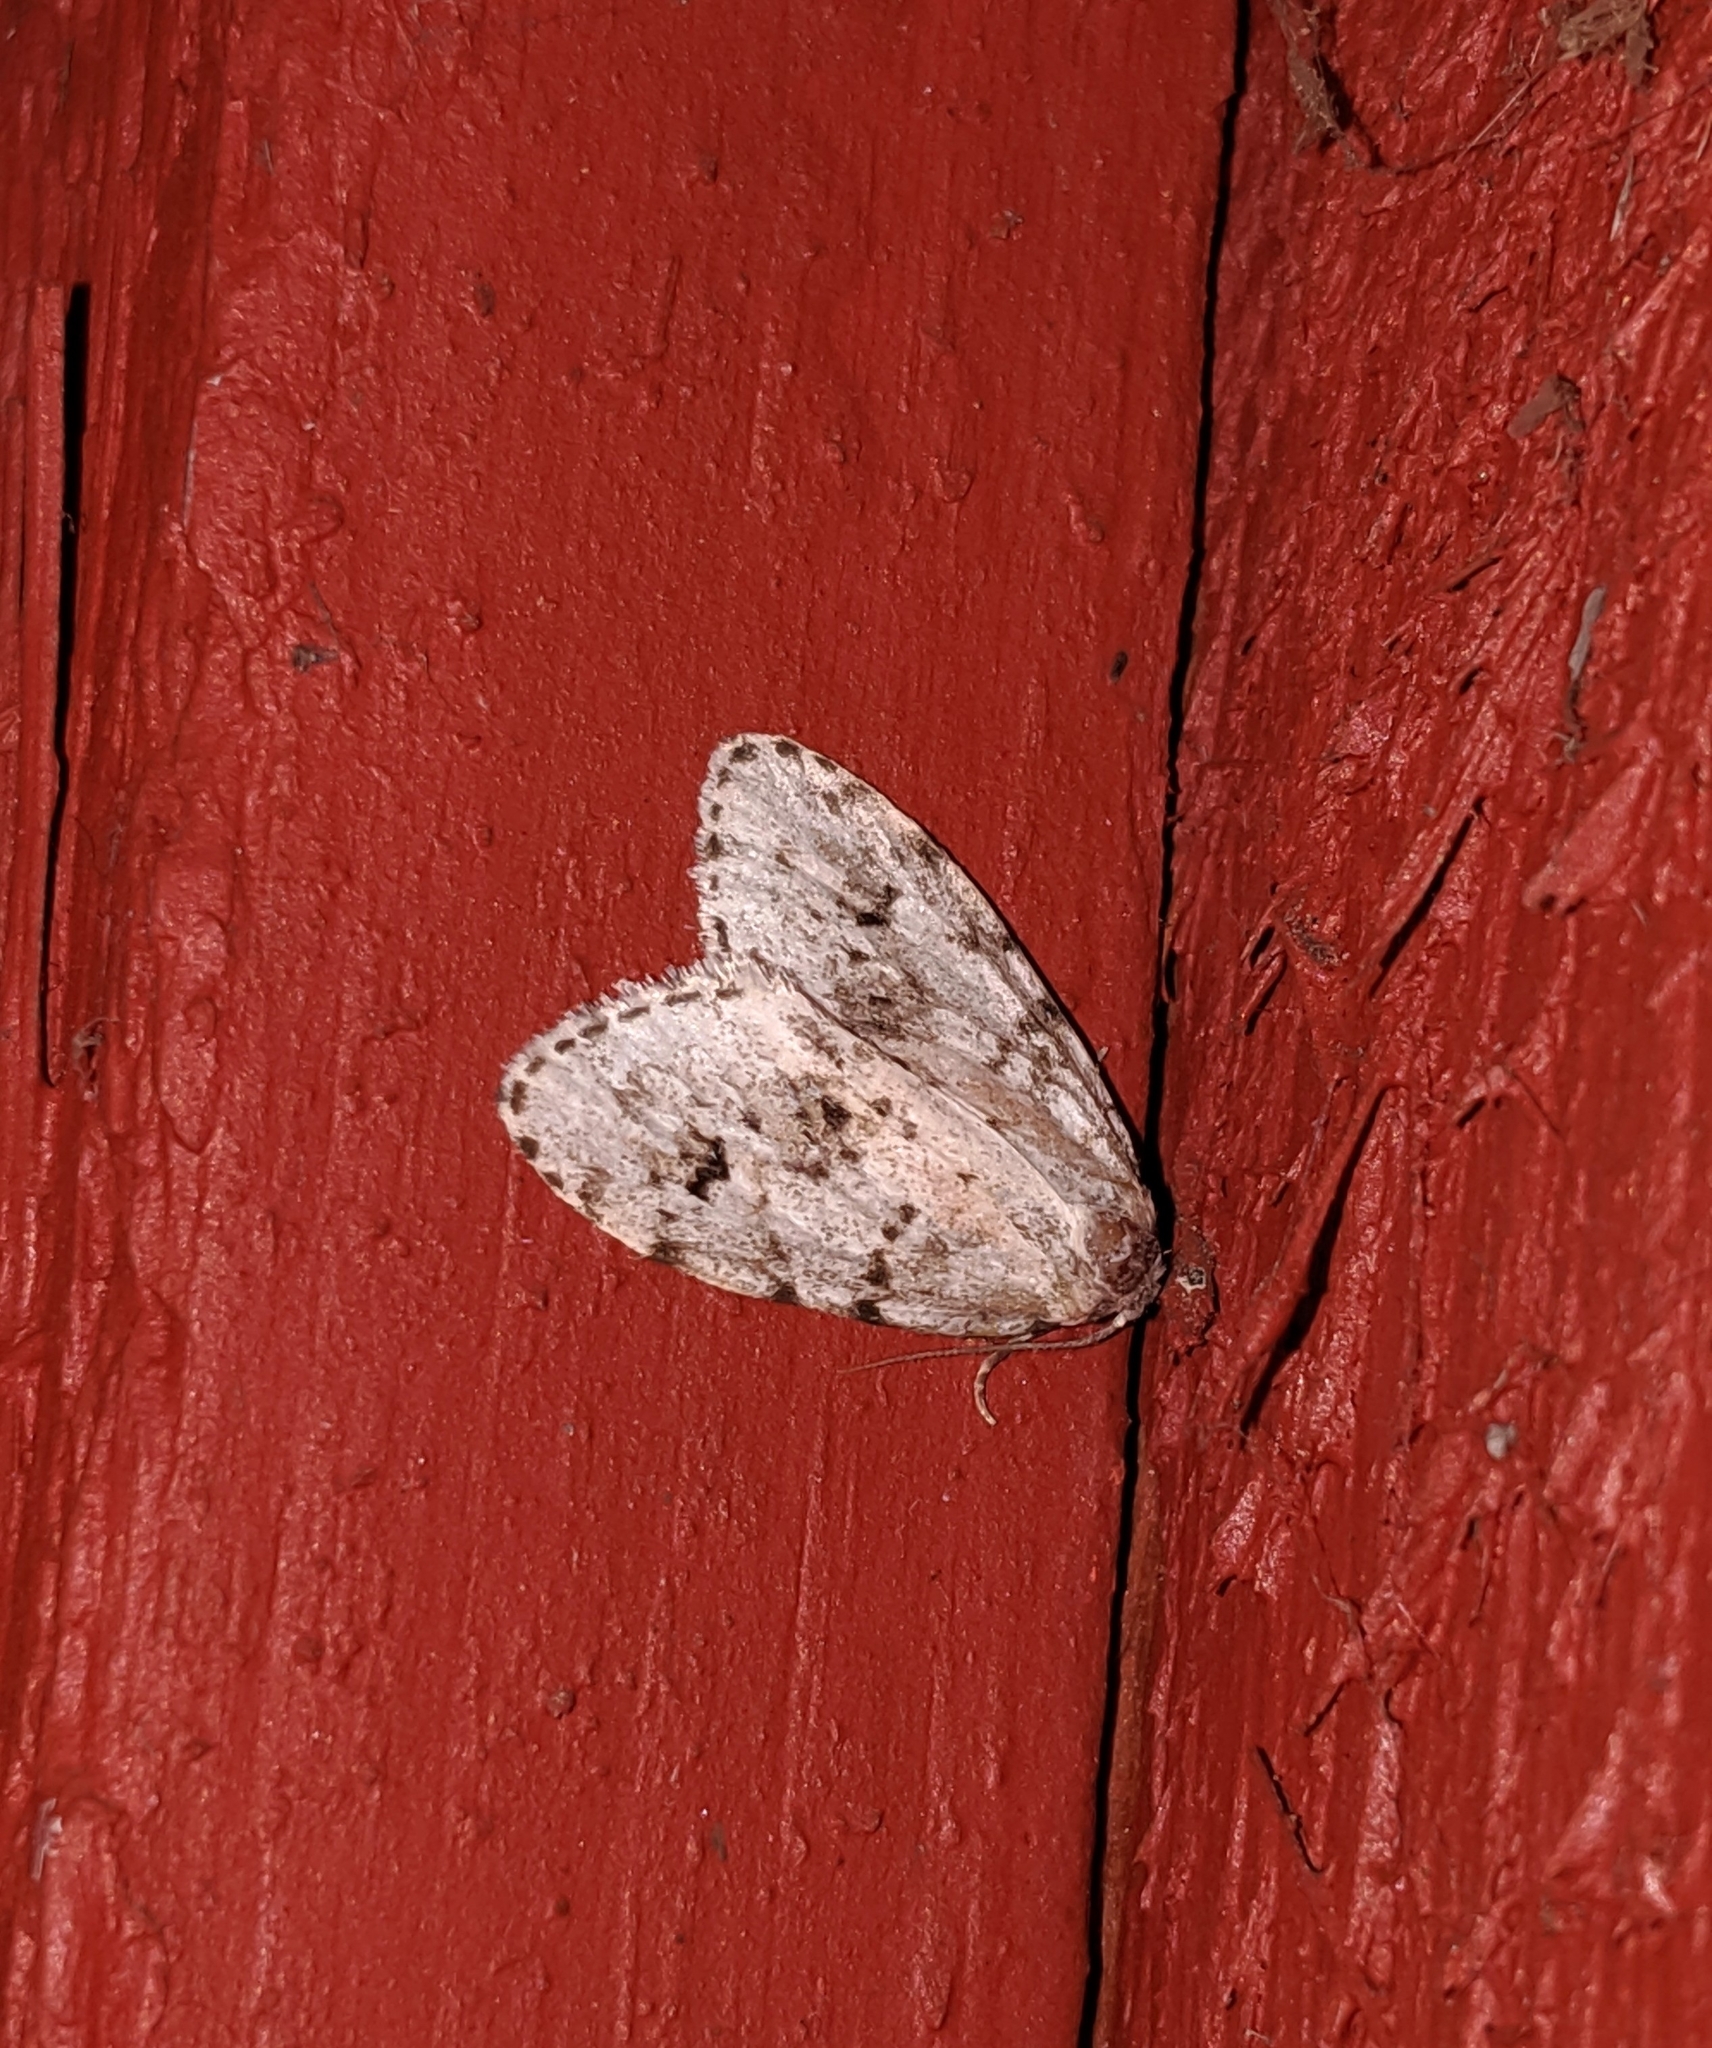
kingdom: Animalia
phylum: Arthropoda
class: Insecta
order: Lepidoptera
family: Erebidae
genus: Clemensia
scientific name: Clemensia umbrata
